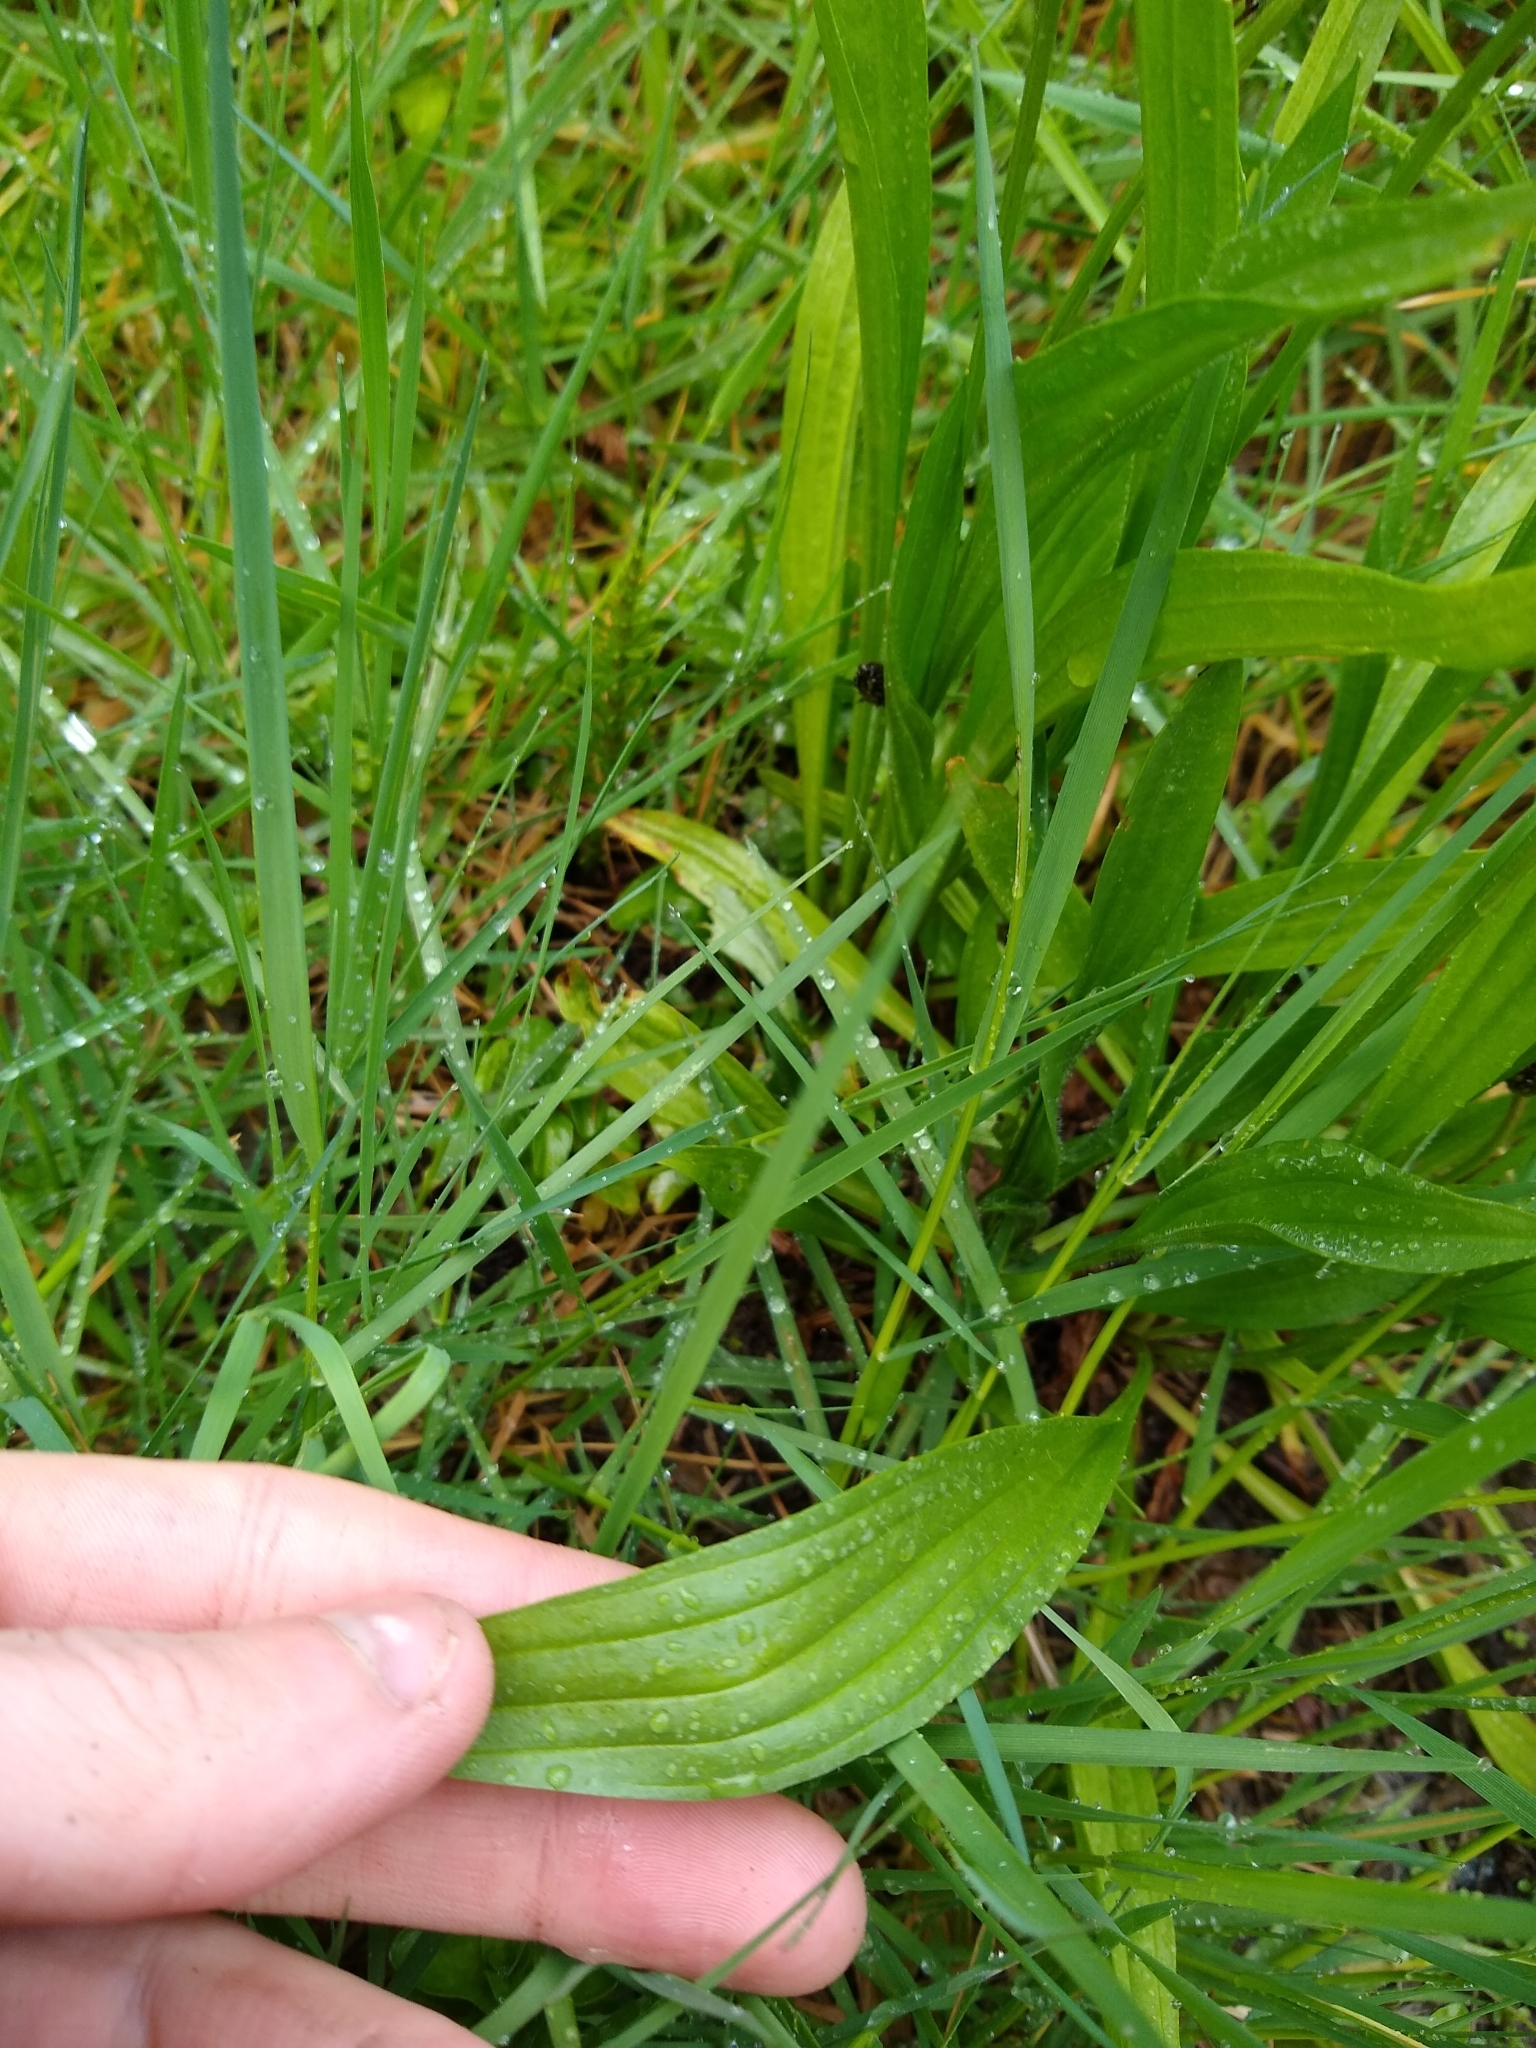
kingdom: Plantae
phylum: Tracheophyta
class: Magnoliopsida
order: Lamiales
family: Plantaginaceae
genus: Plantago
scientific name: Plantago lanceolata
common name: Ribwort plantain
